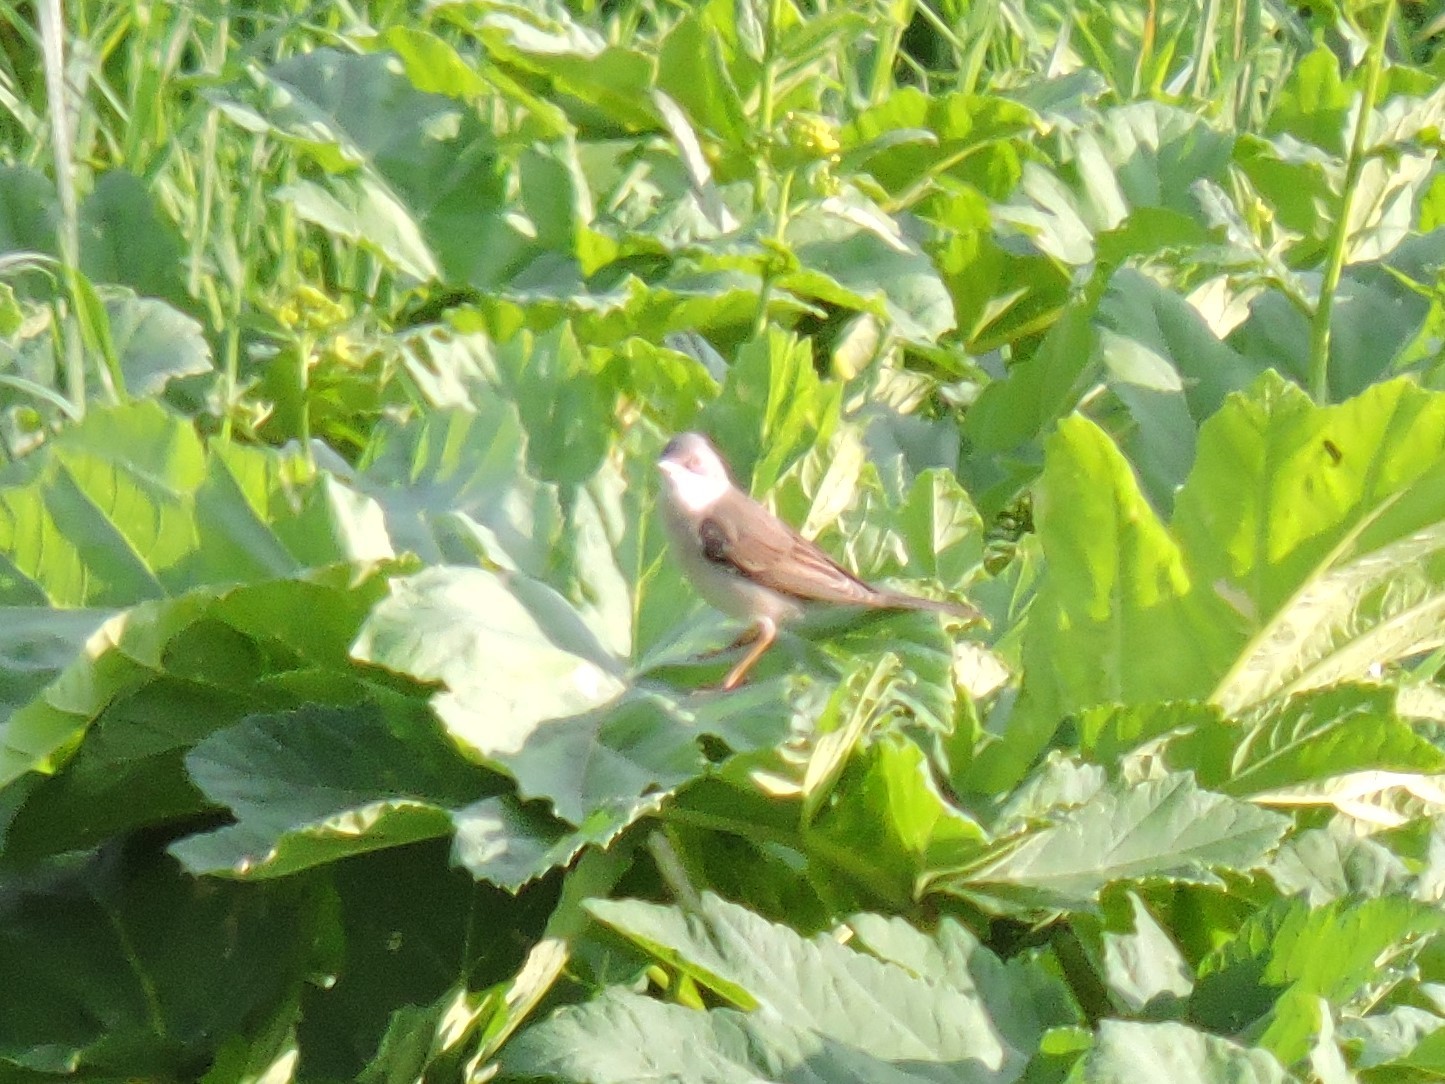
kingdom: Animalia
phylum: Chordata
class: Aves
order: Passeriformes
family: Sylviidae
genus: Sylvia
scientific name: Sylvia communis
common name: Common whitethroat
